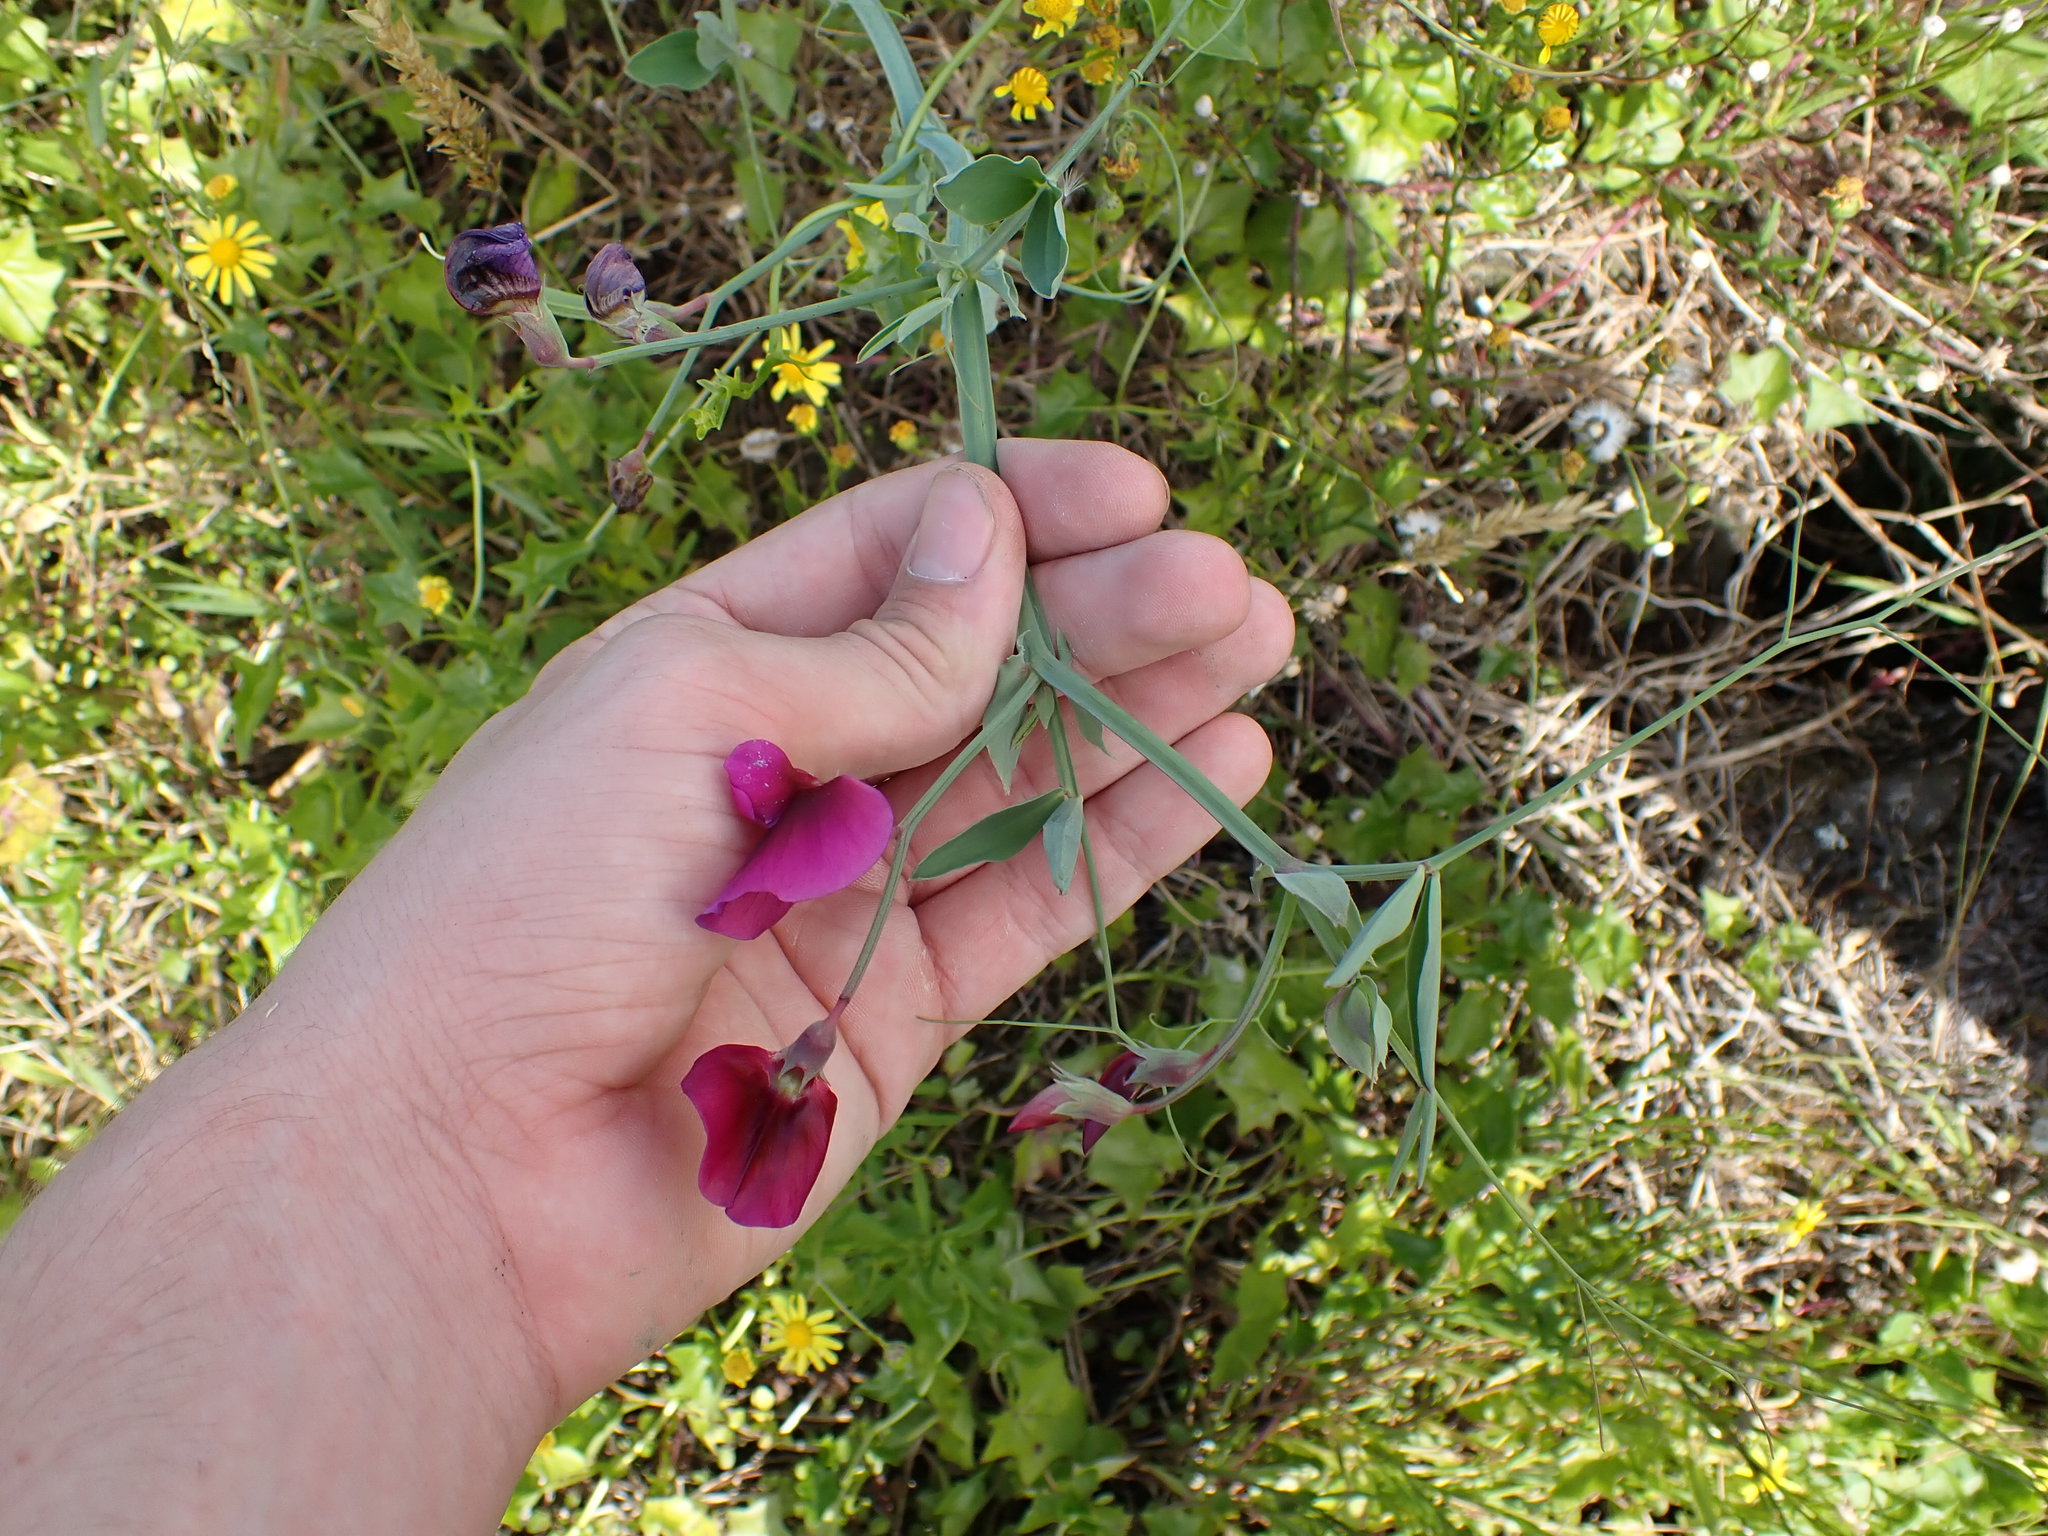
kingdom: Plantae
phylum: Tracheophyta
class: Magnoliopsida
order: Fabales
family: Fabaceae
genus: Lathyrus
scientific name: Lathyrus tingitanus
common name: Tangier pea
